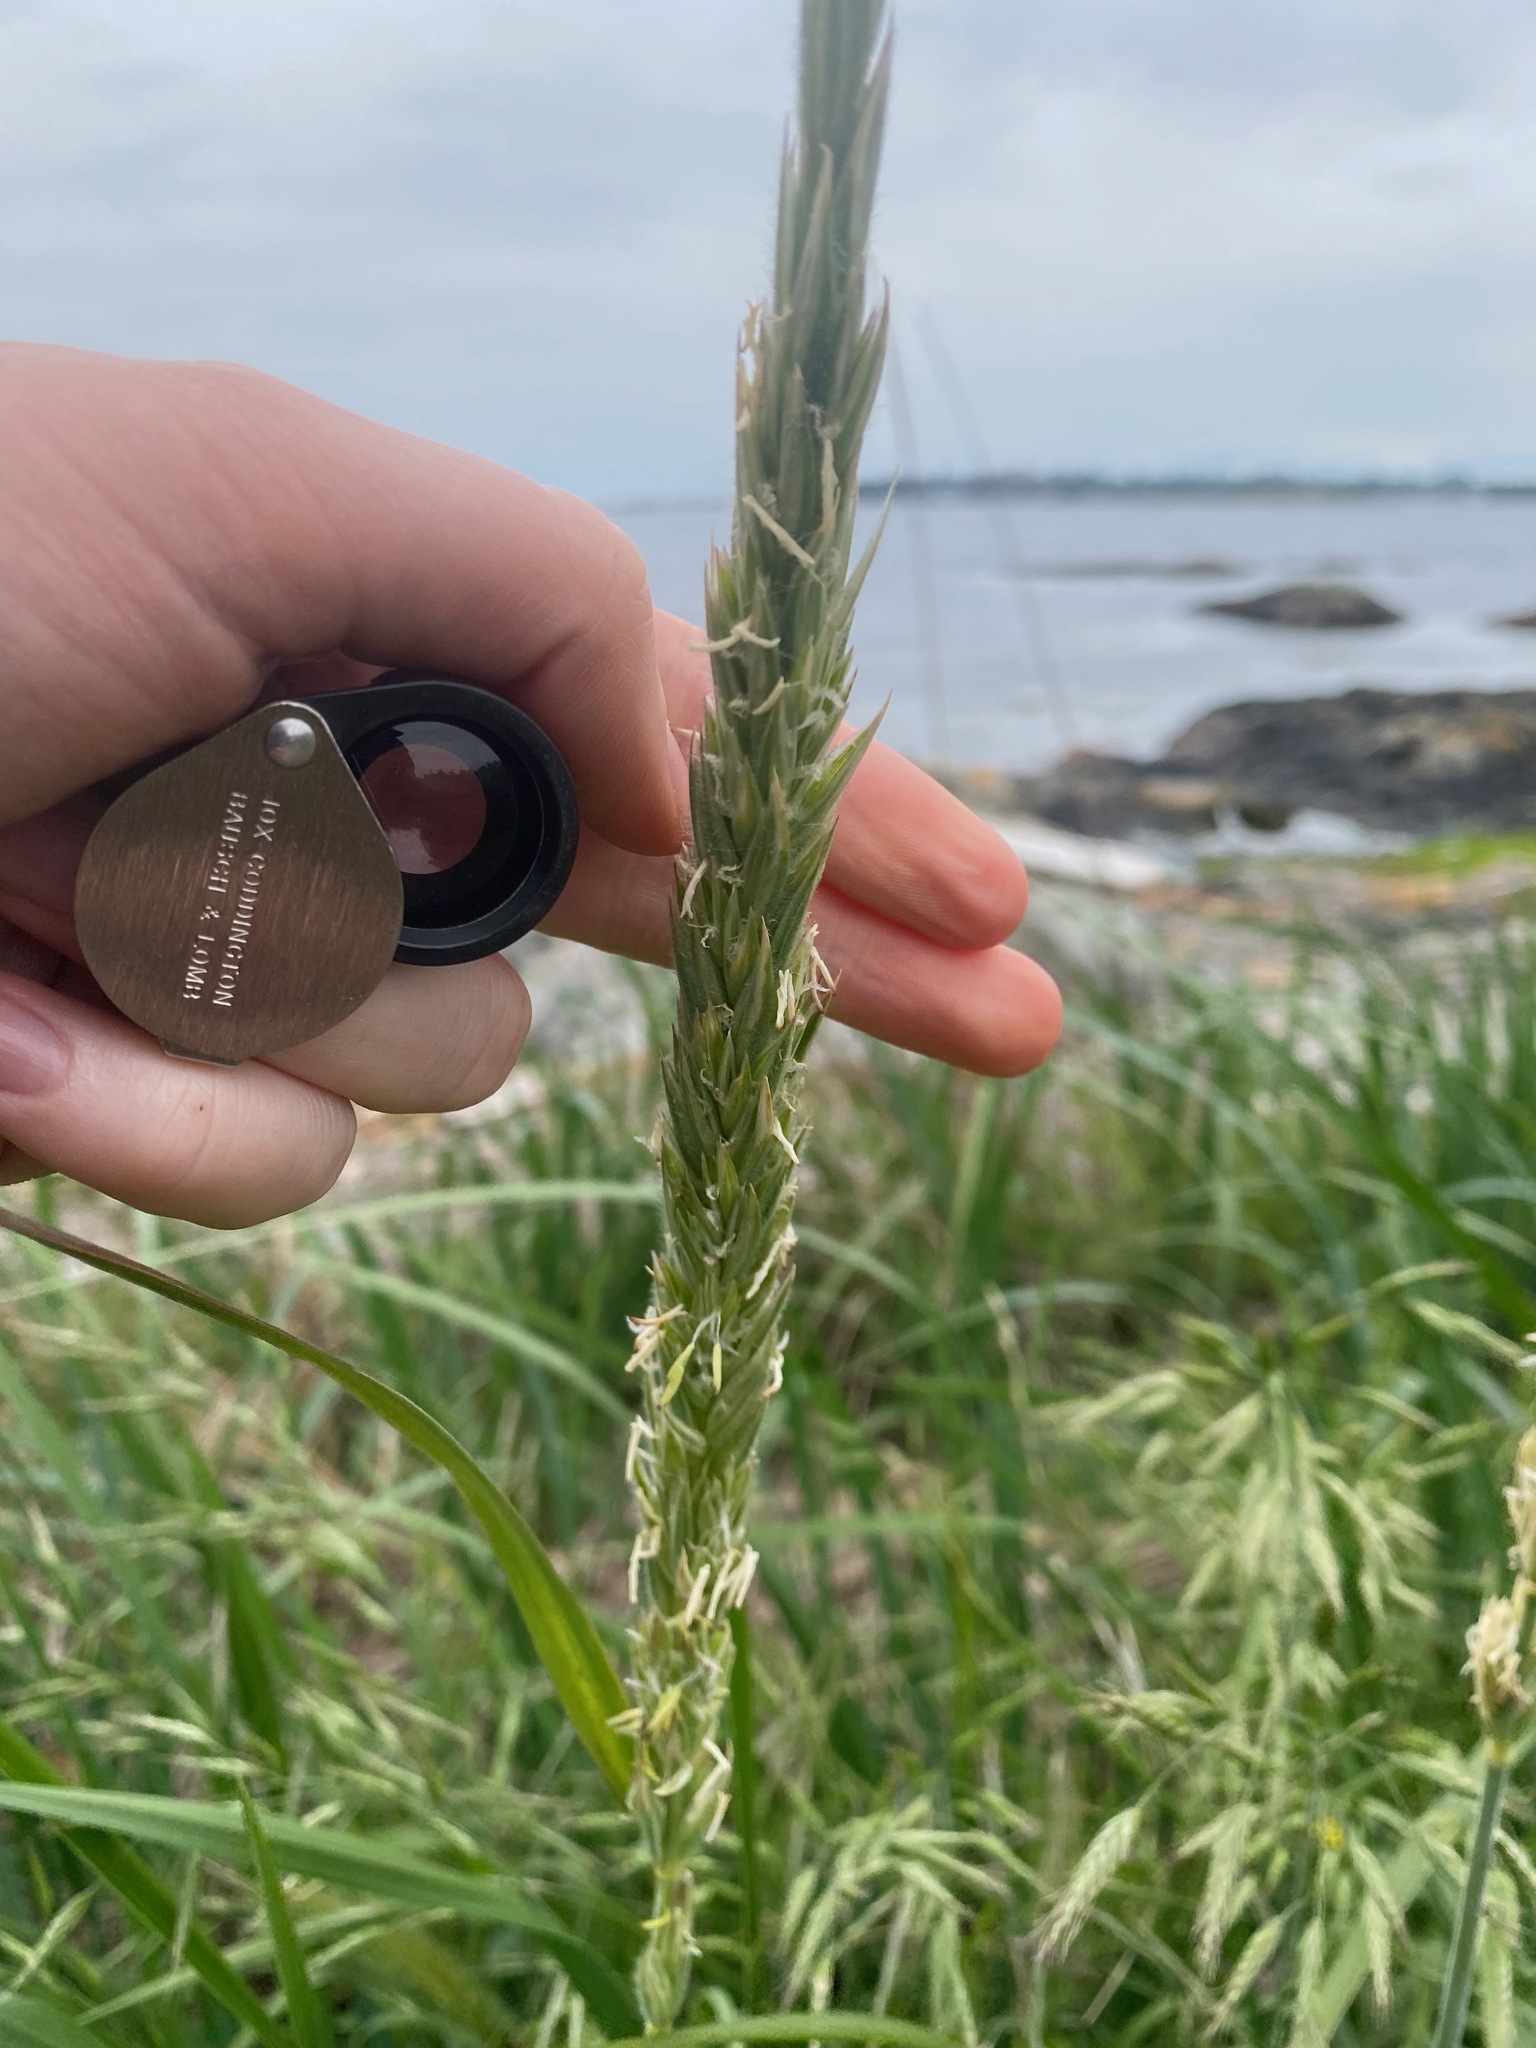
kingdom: Plantae
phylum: Tracheophyta
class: Liliopsida
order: Poales
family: Poaceae
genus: Leymus
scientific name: Leymus mollis
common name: American dune grass
